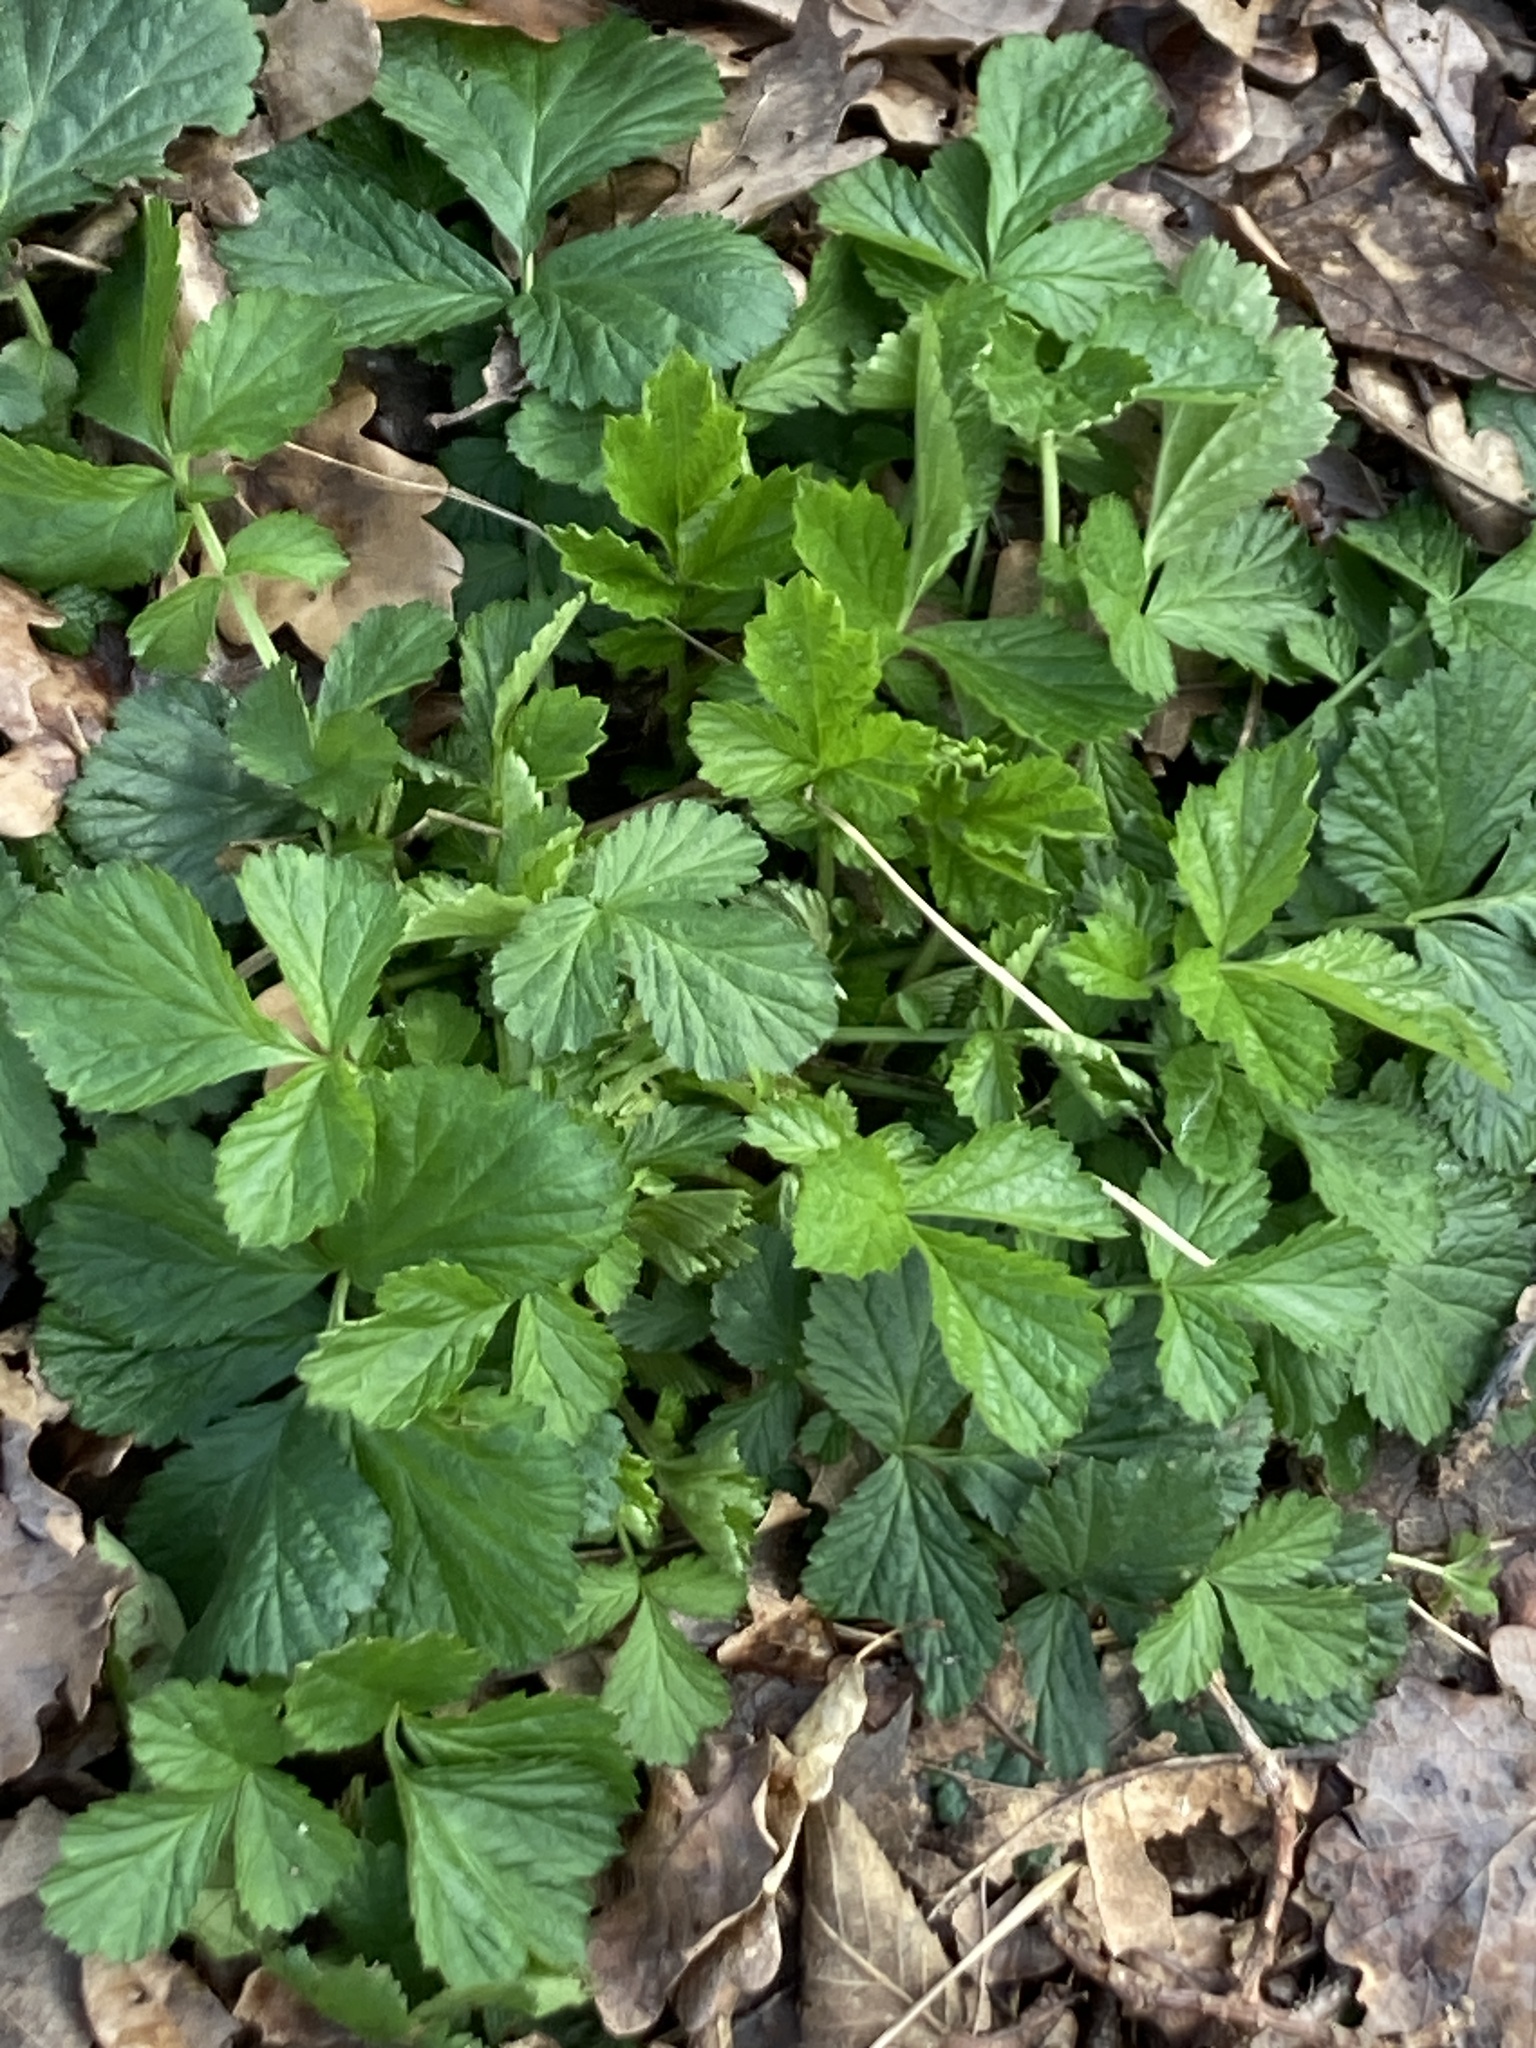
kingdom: Plantae
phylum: Tracheophyta
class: Magnoliopsida
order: Rosales
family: Rosaceae
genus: Geum
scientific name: Geum urbanum
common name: Wood avens
